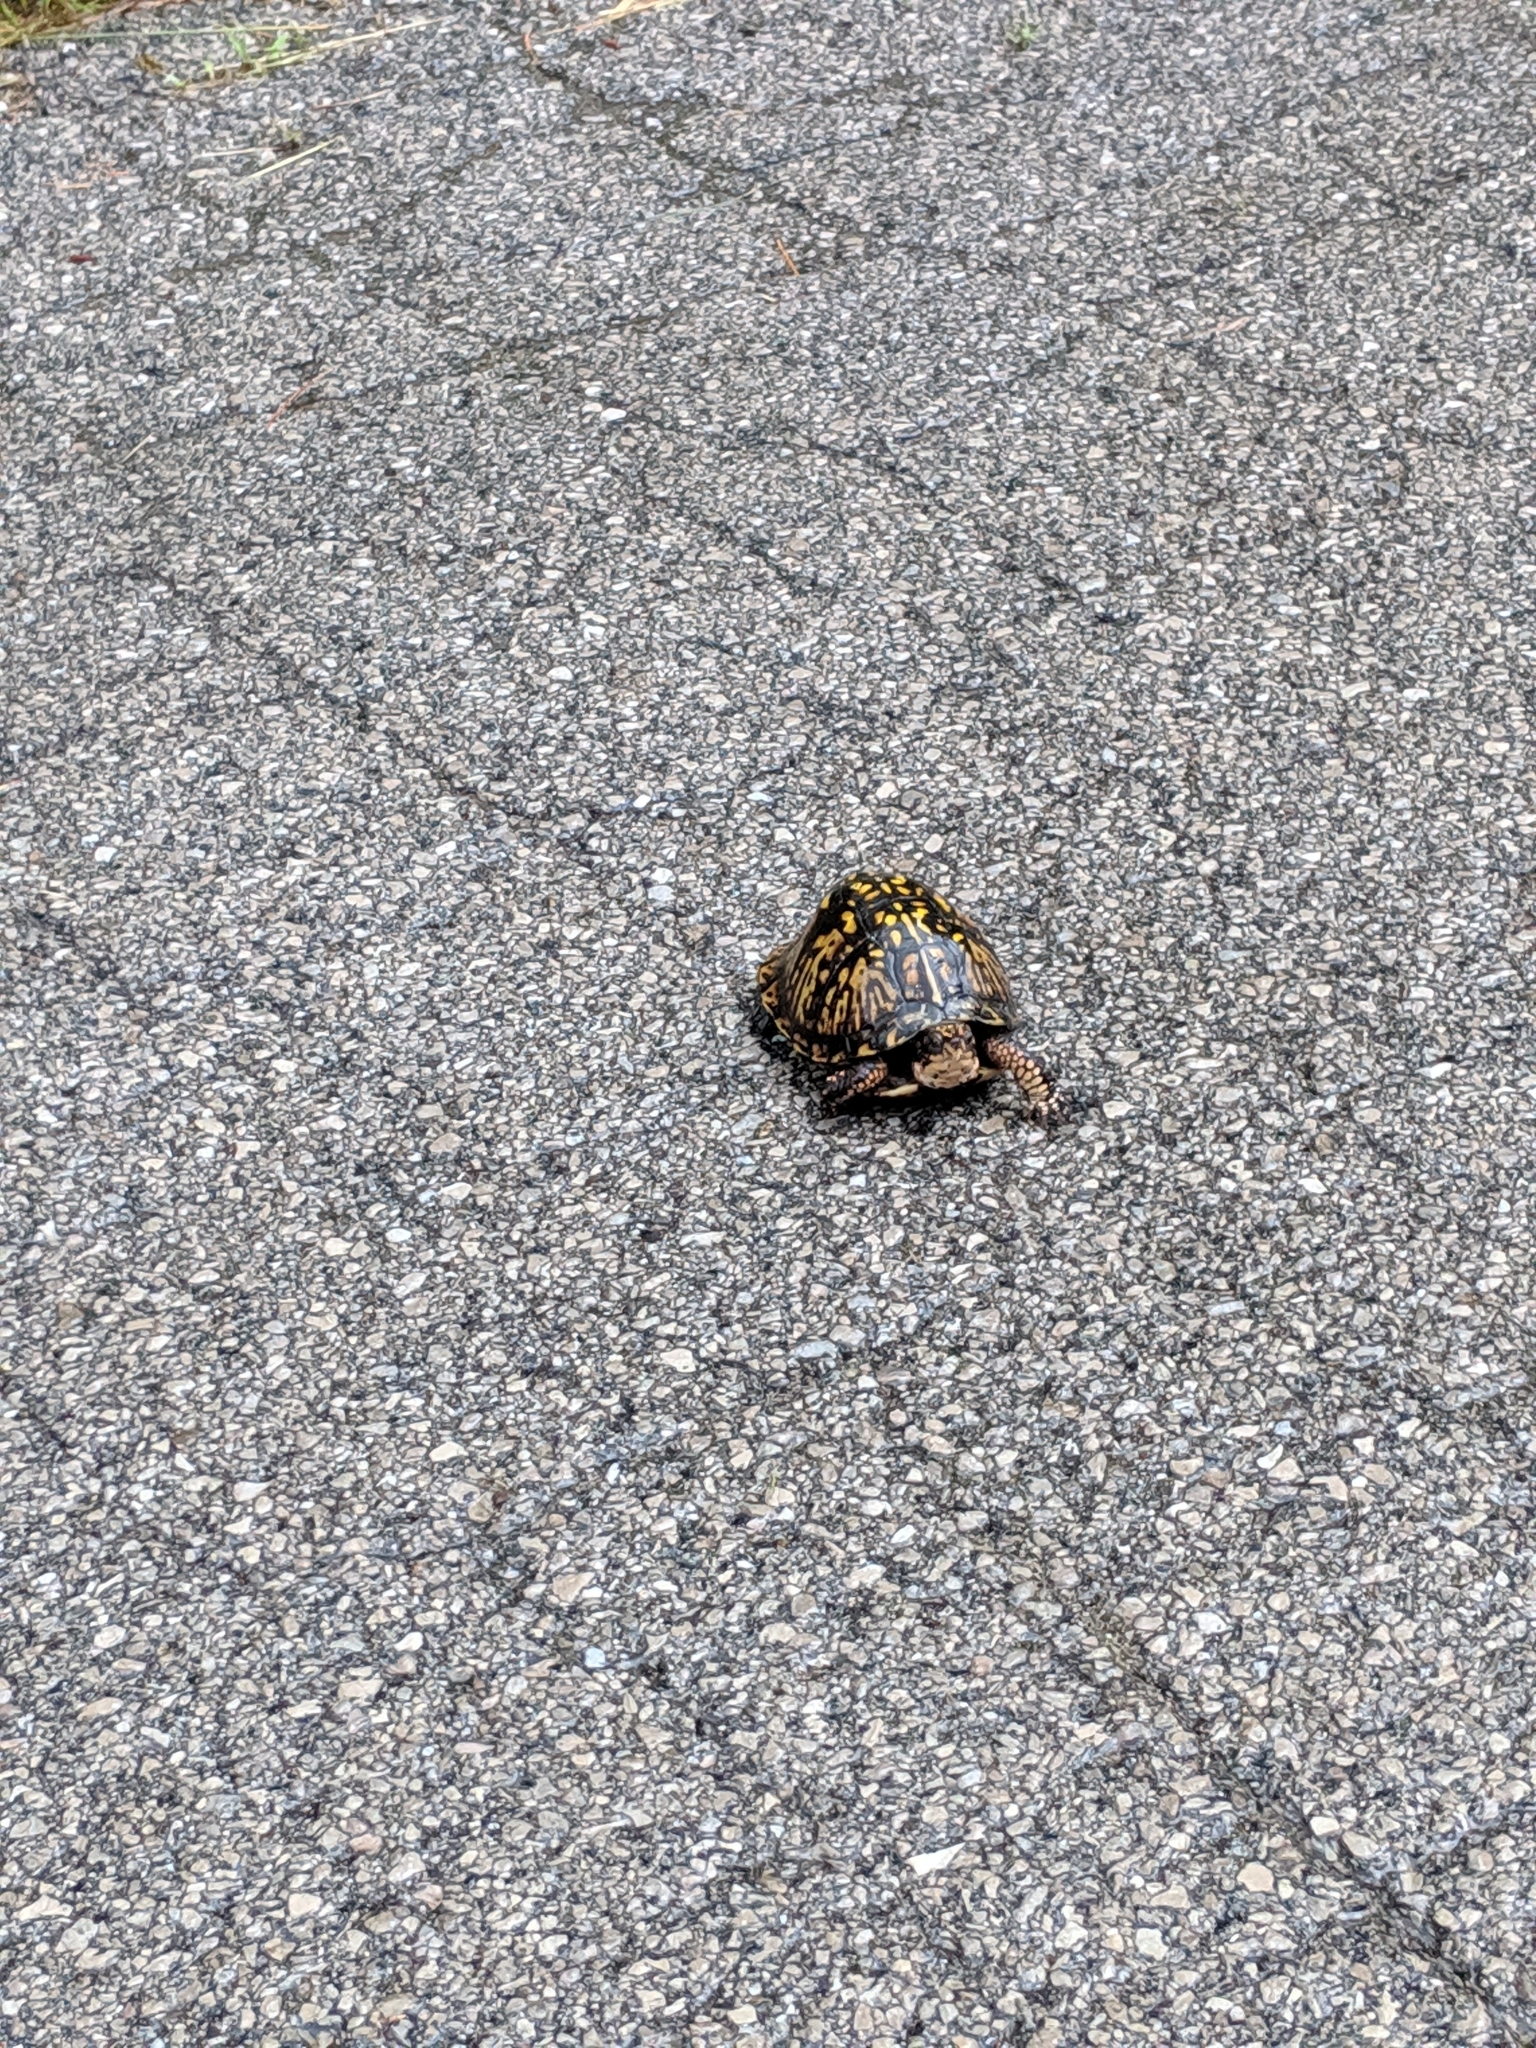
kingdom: Animalia
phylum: Chordata
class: Testudines
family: Emydidae
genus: Terrapene
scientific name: Terrapene carolina
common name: Common box turtle
